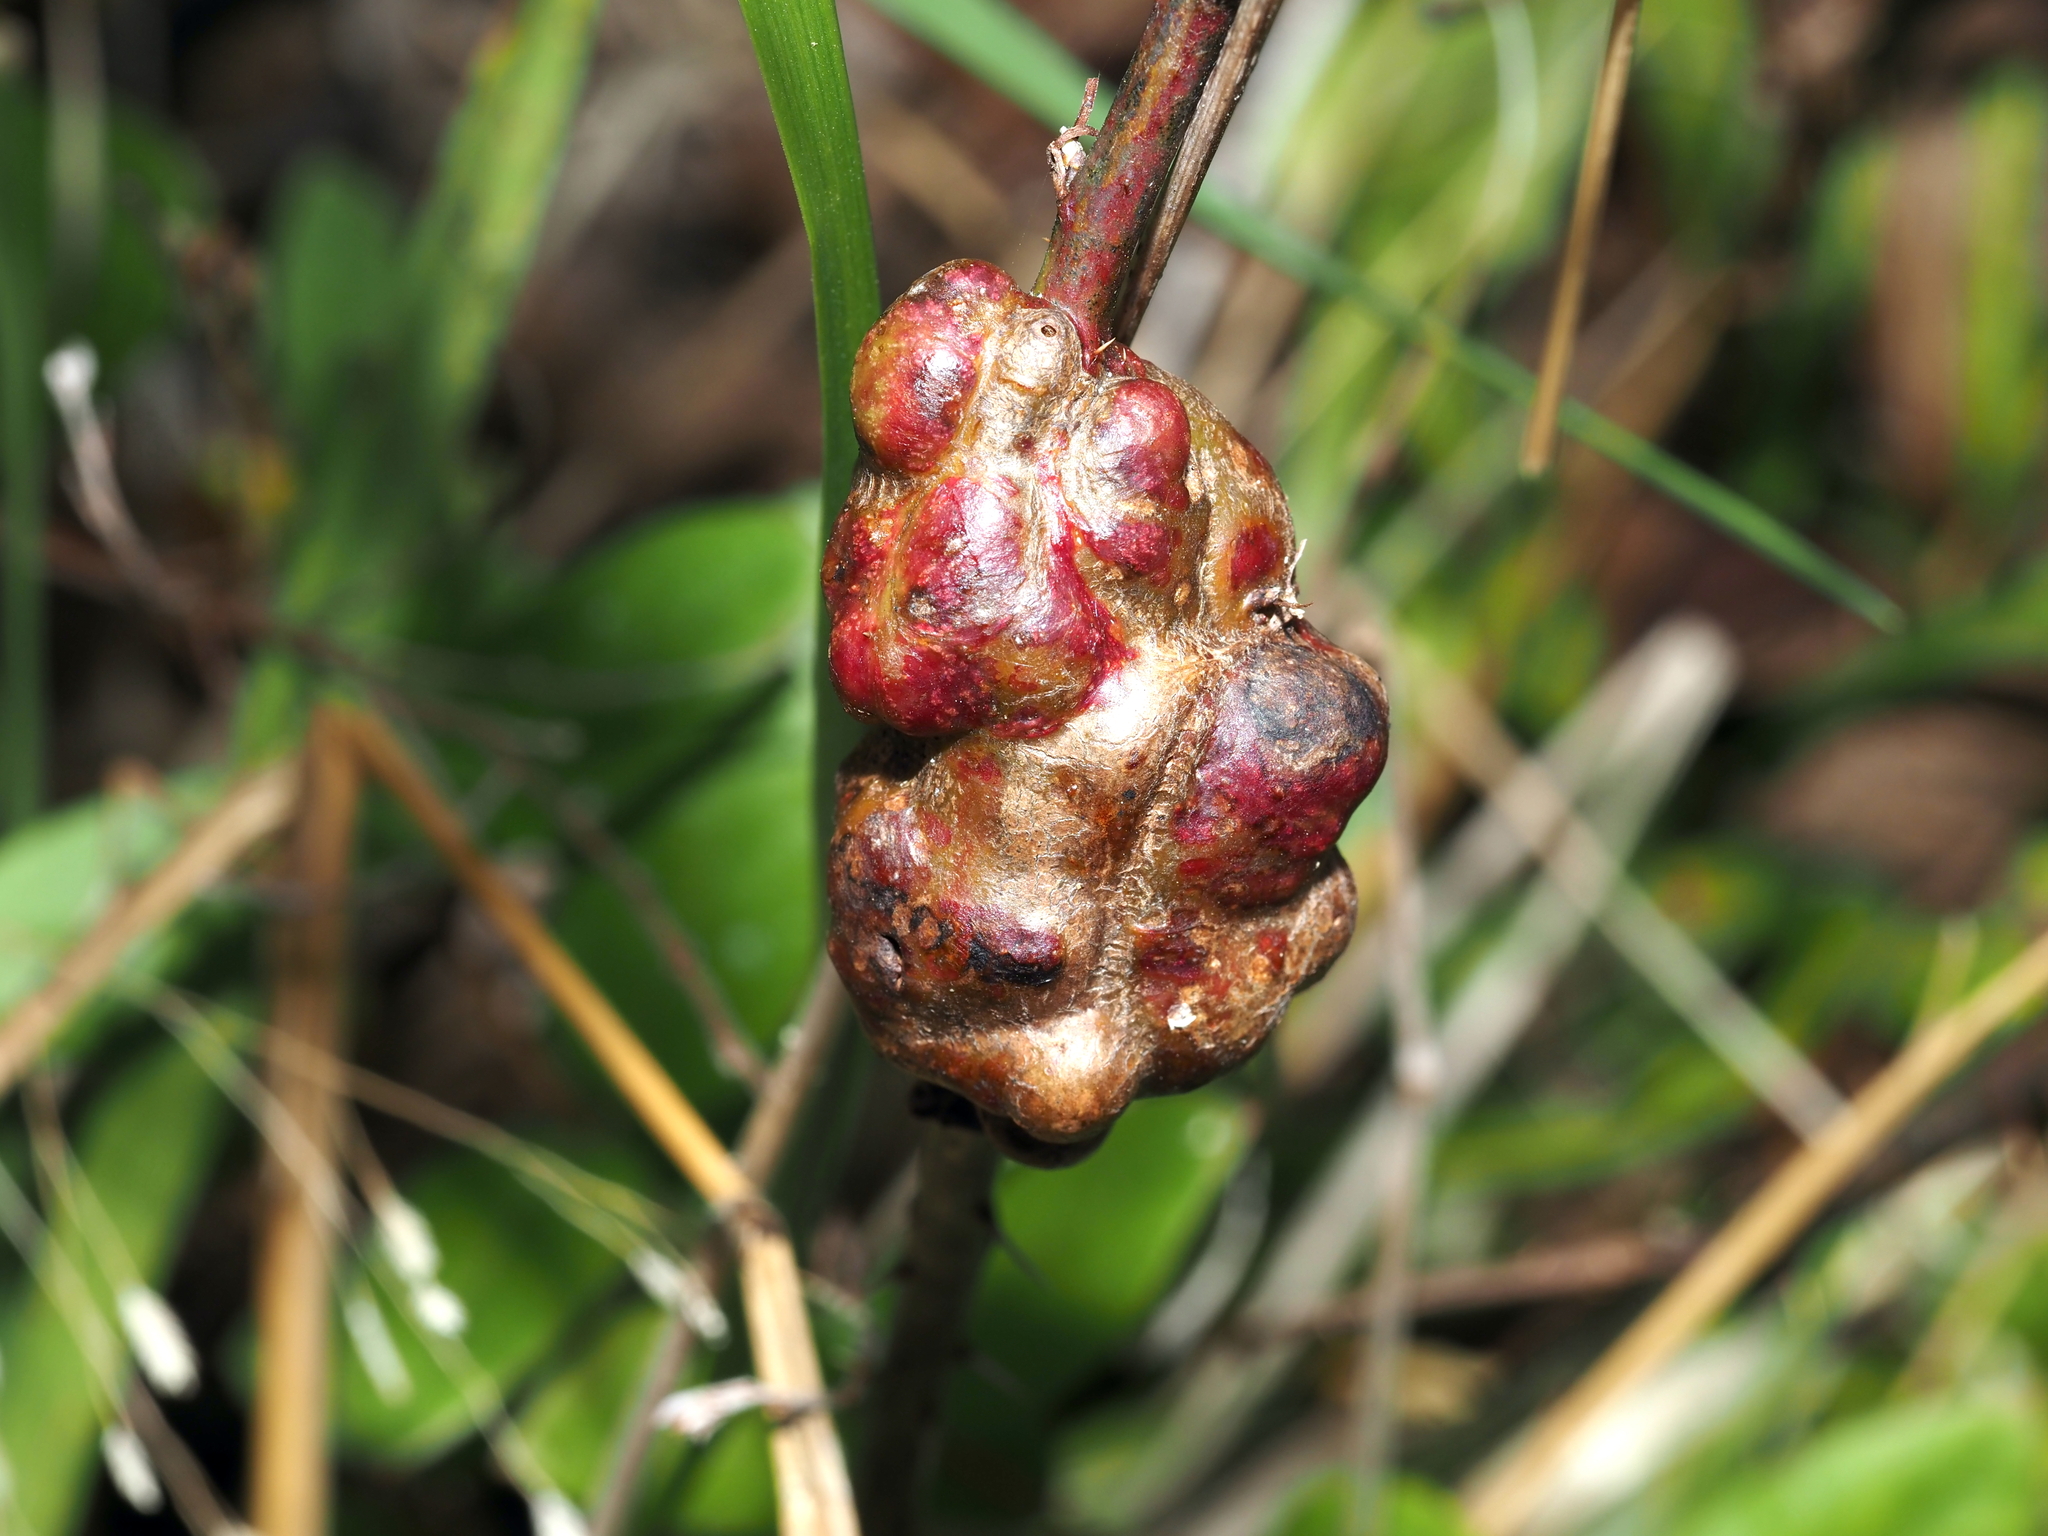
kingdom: Animalia
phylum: Arthropoda
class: Insecta
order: Hymenoptera
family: Cynipidae
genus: Diastrophus
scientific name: Diastrophus
